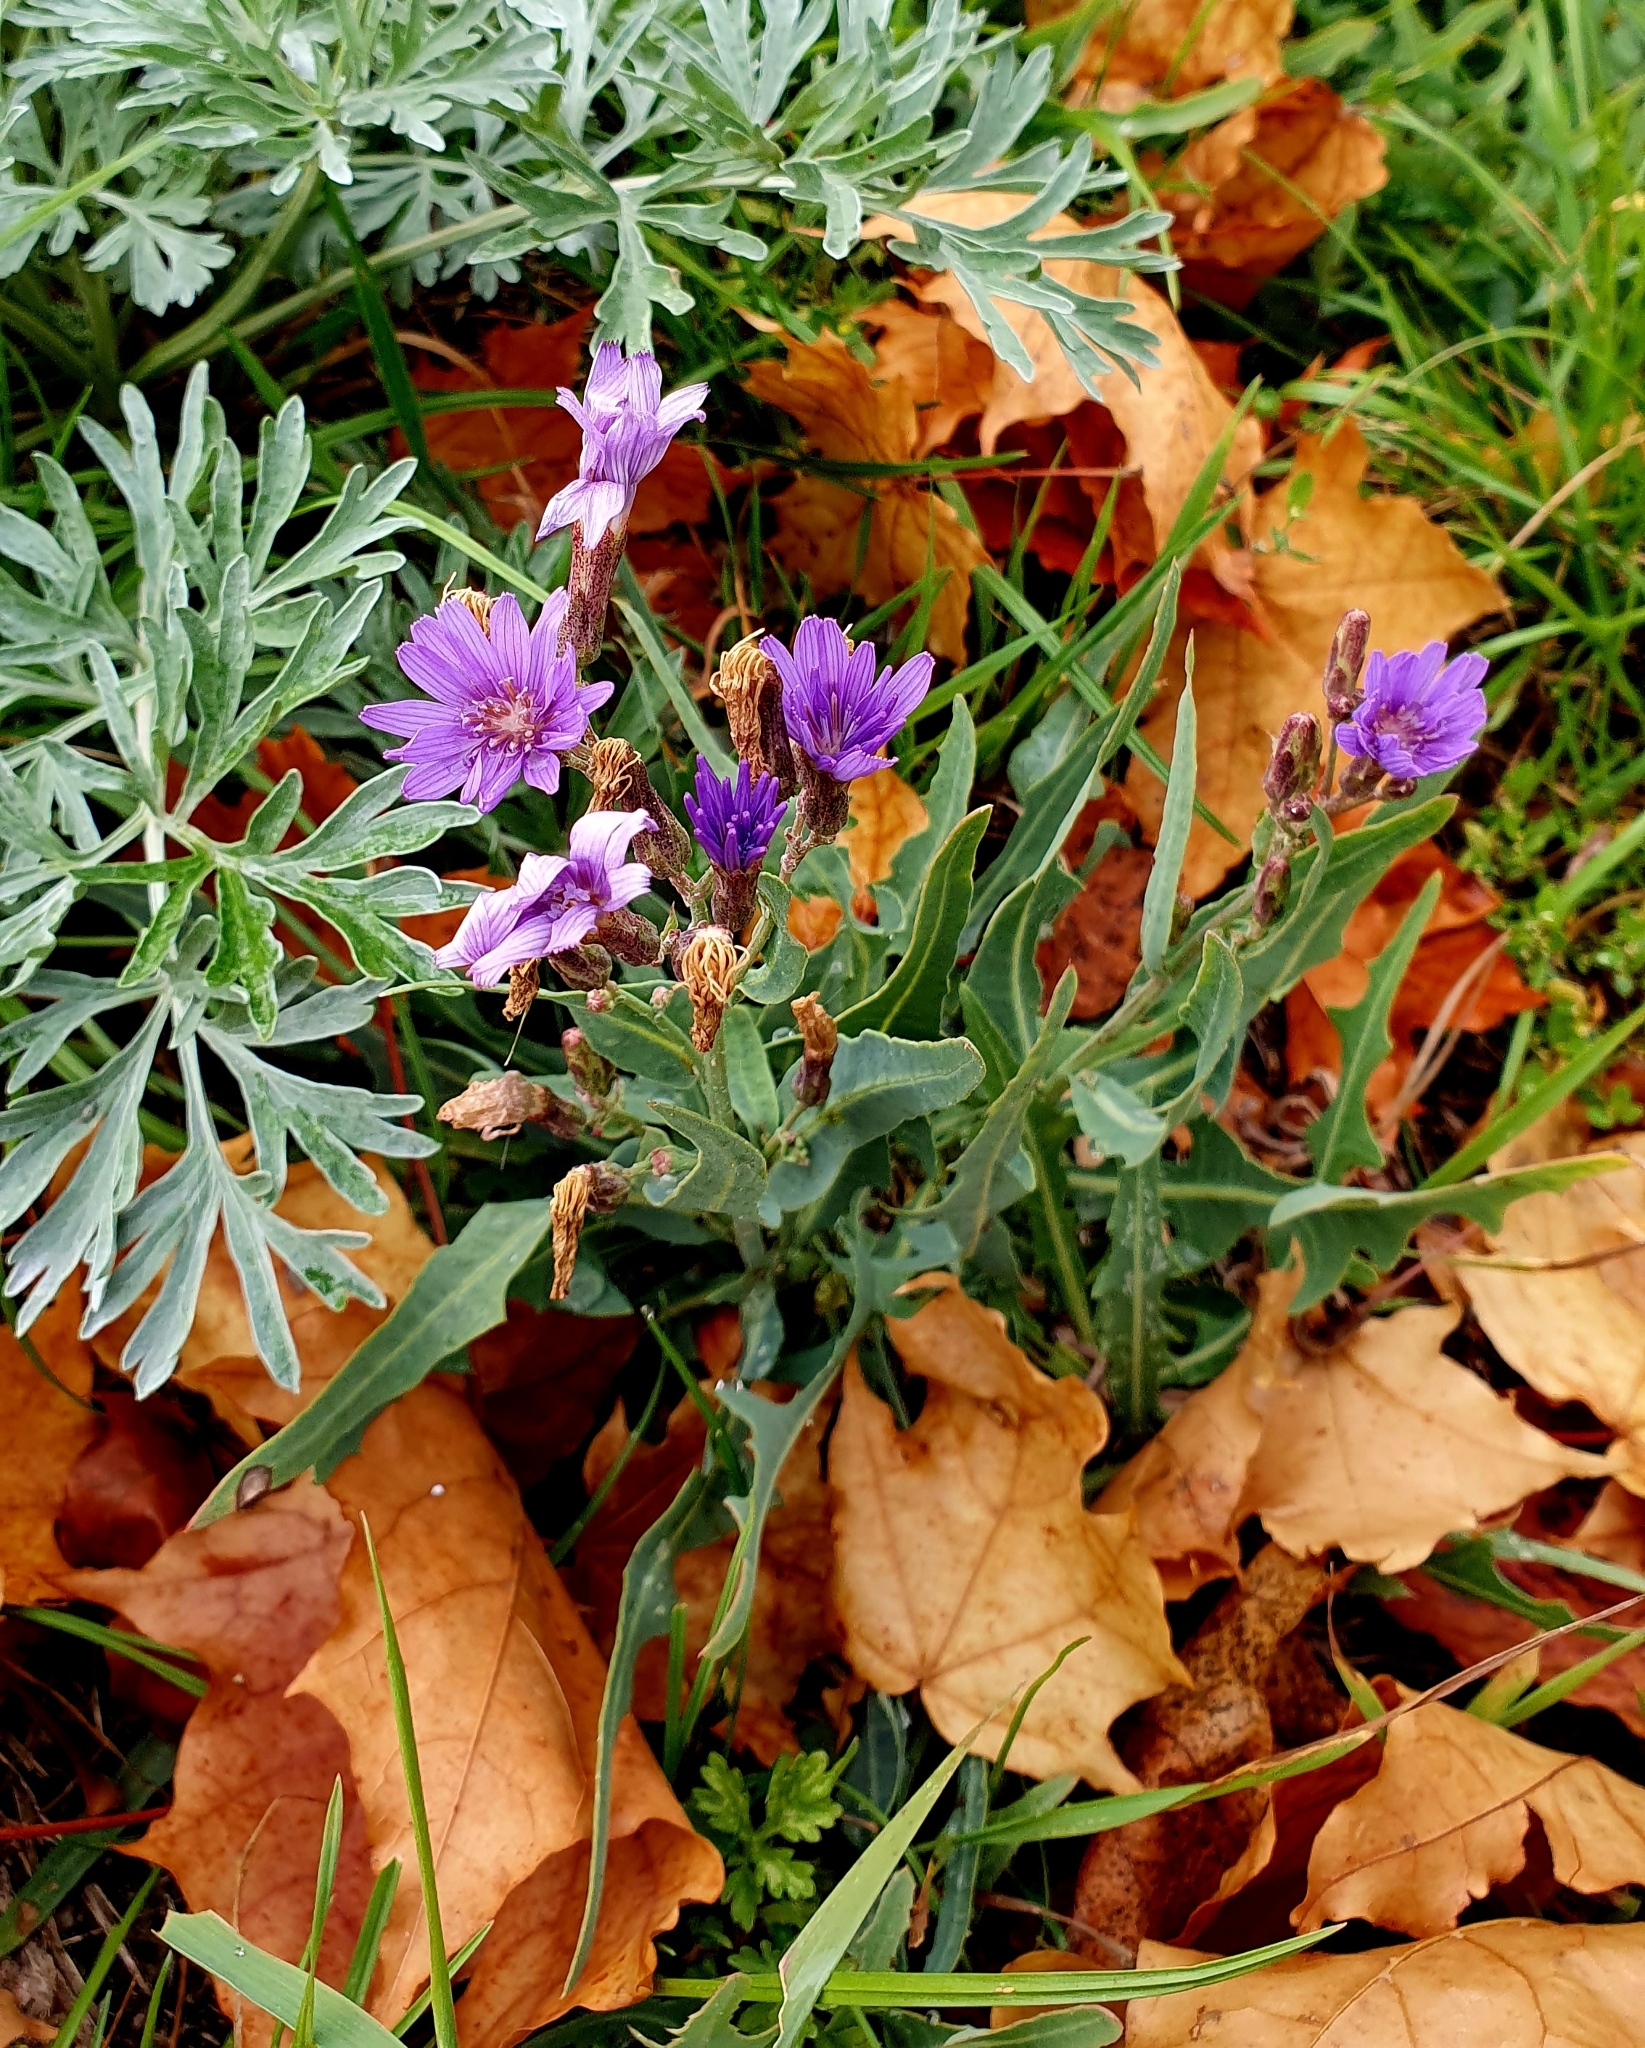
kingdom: Plantae
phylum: Tracheophyta
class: Magnoliopsida
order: Asterales
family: Asteraceae
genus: Lactuca
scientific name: Lactuca tatarica
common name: Blue lettuce
